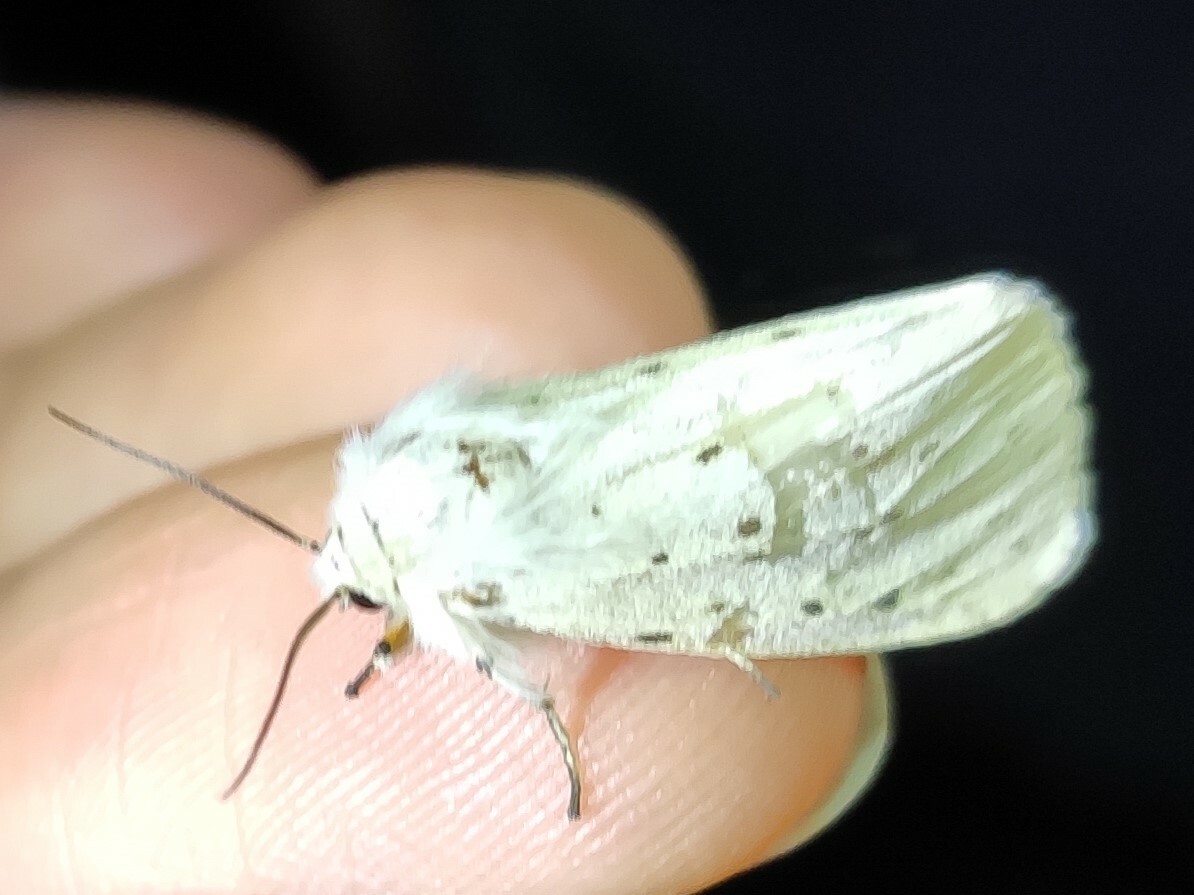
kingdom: Animalia
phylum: Arthropoda
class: Insecta
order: Lepidoptera
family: Erebidae
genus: Spilosoma
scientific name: Spilosoma lubricipeda
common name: White ermine
